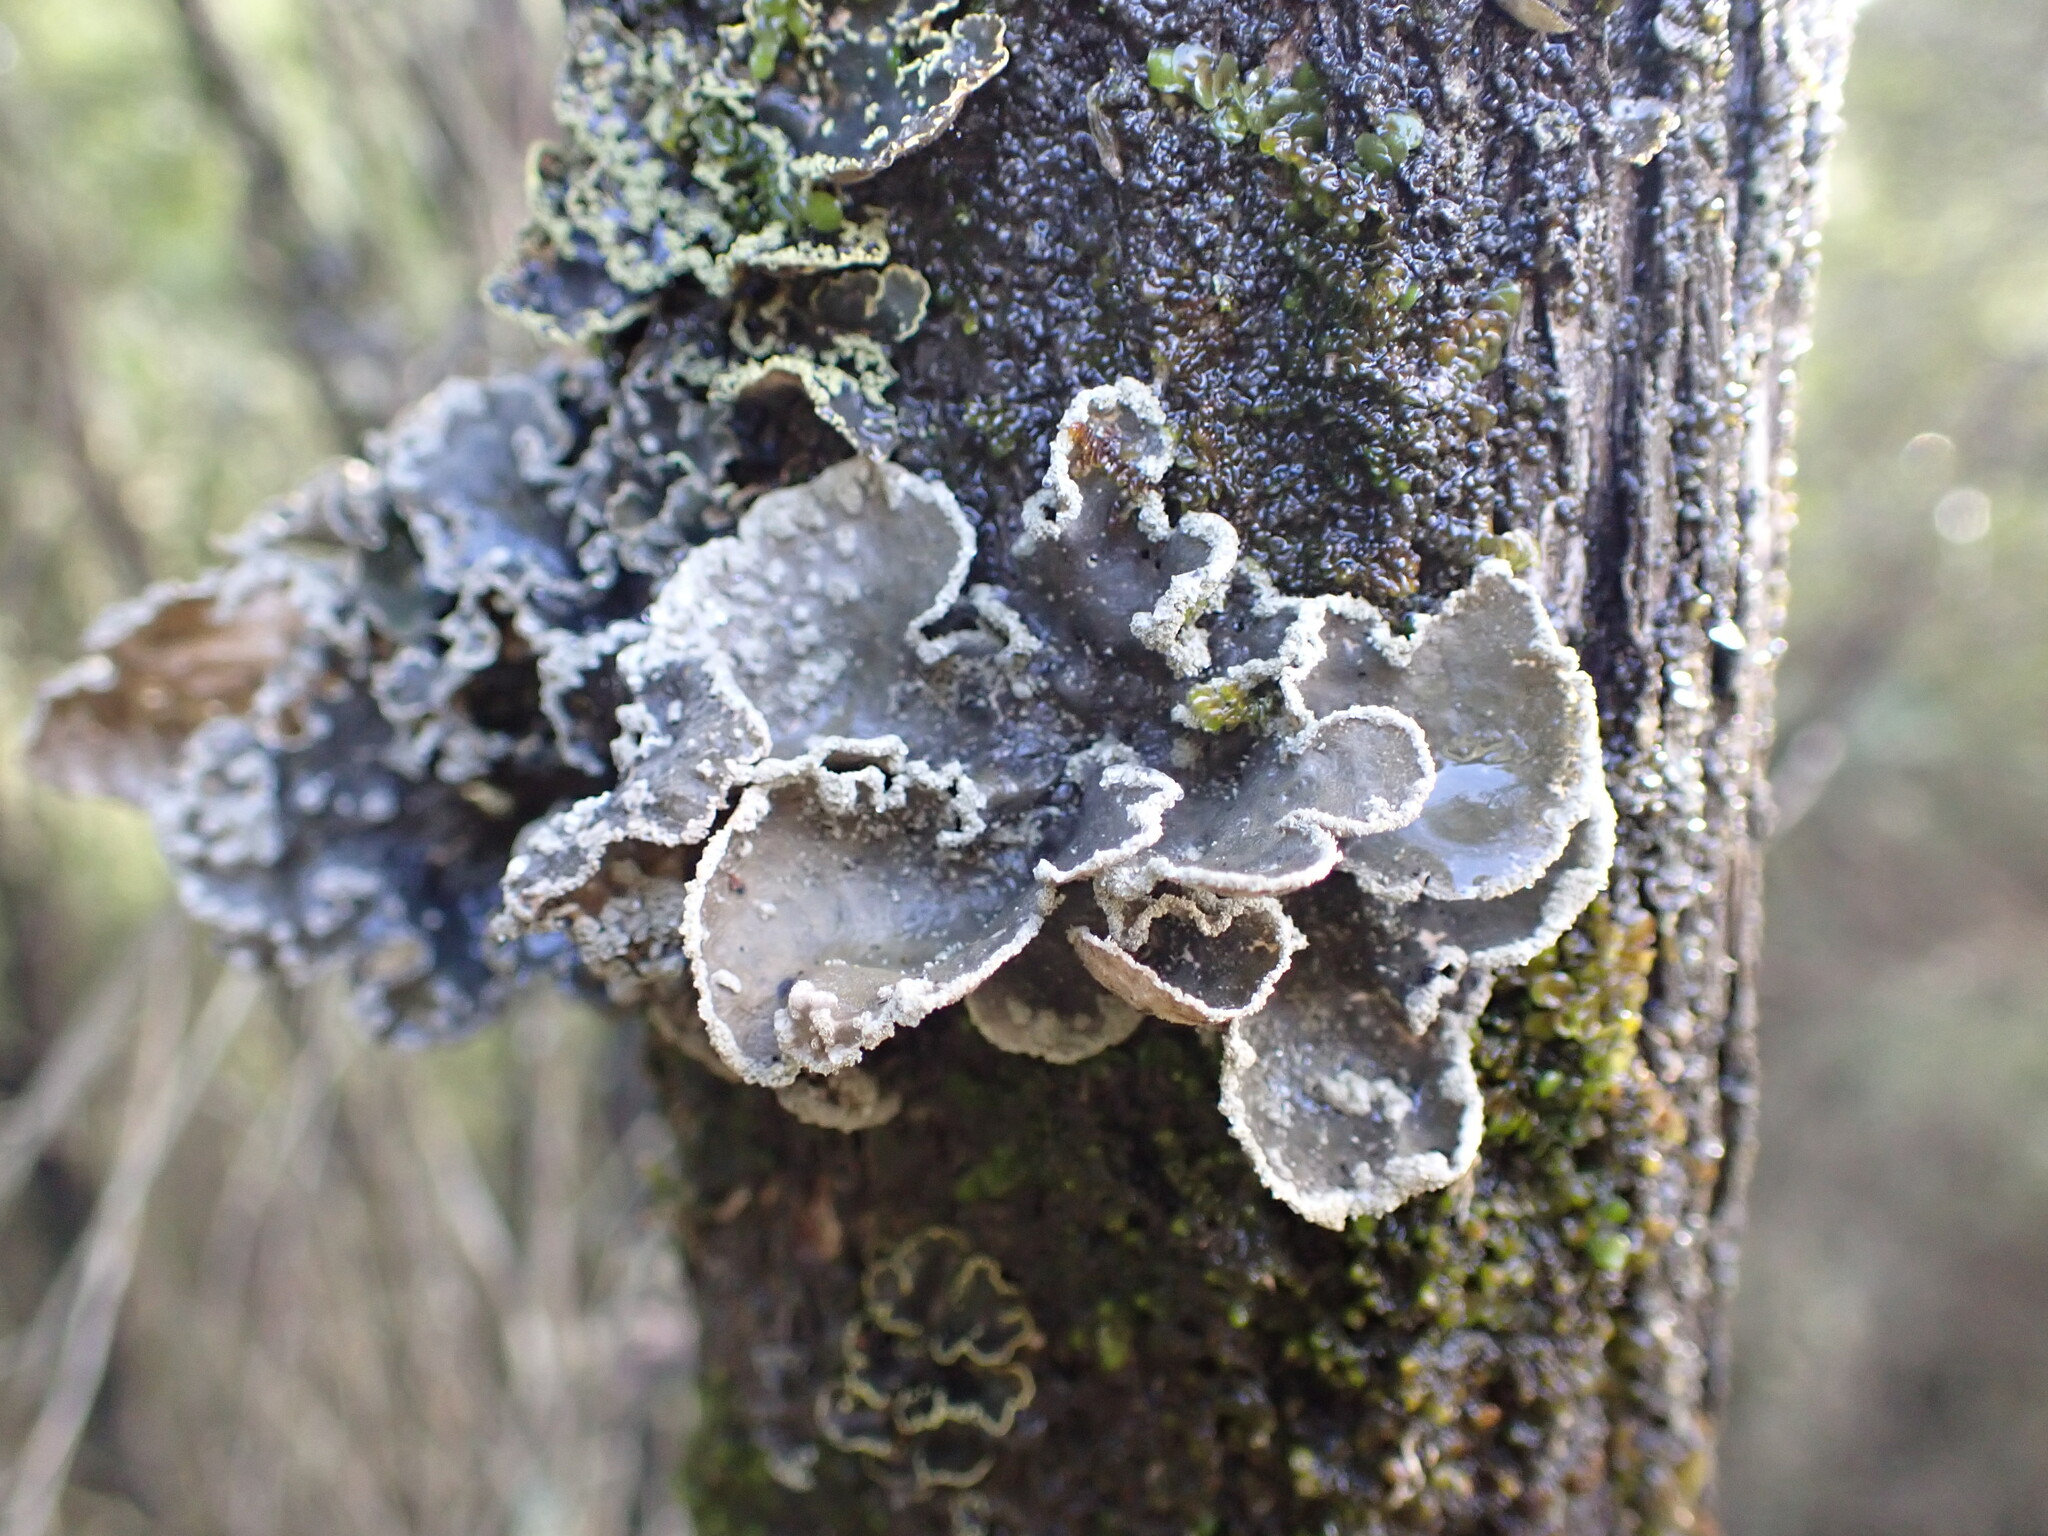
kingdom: Fungi
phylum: Ascomycota
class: Lecanoromycetes
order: Peltigerales
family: Lobariaceae
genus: Sticta
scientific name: Sticta limbata
